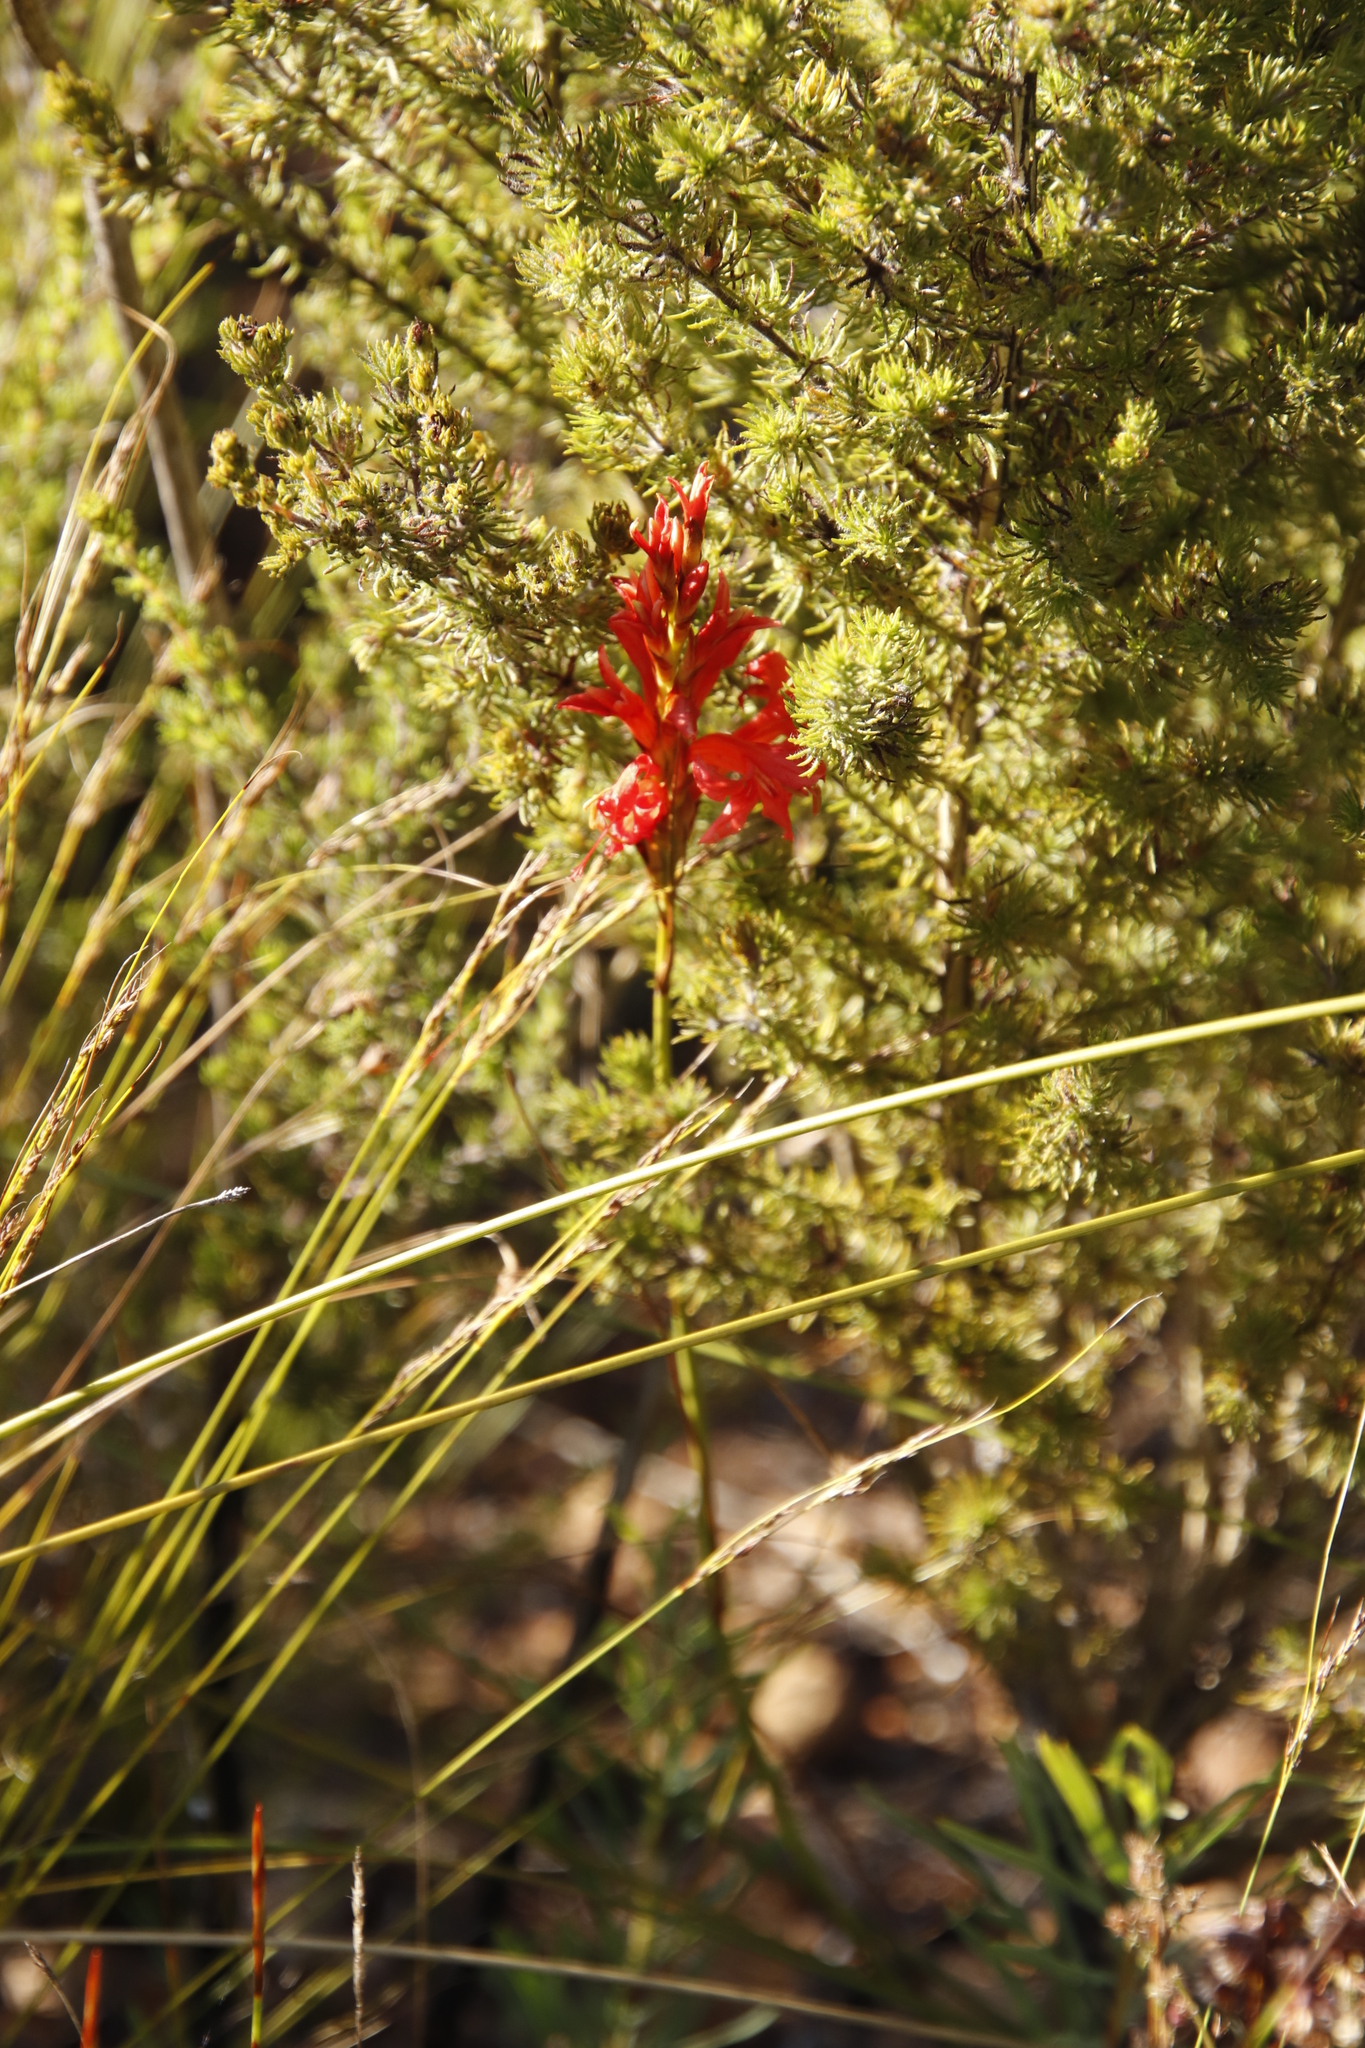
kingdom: Plantae
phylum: Tracheophyta
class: Liliopsida
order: Asparagales
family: Iridaceae
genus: Tritoniopsis
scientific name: Tritoniopsis triticea
